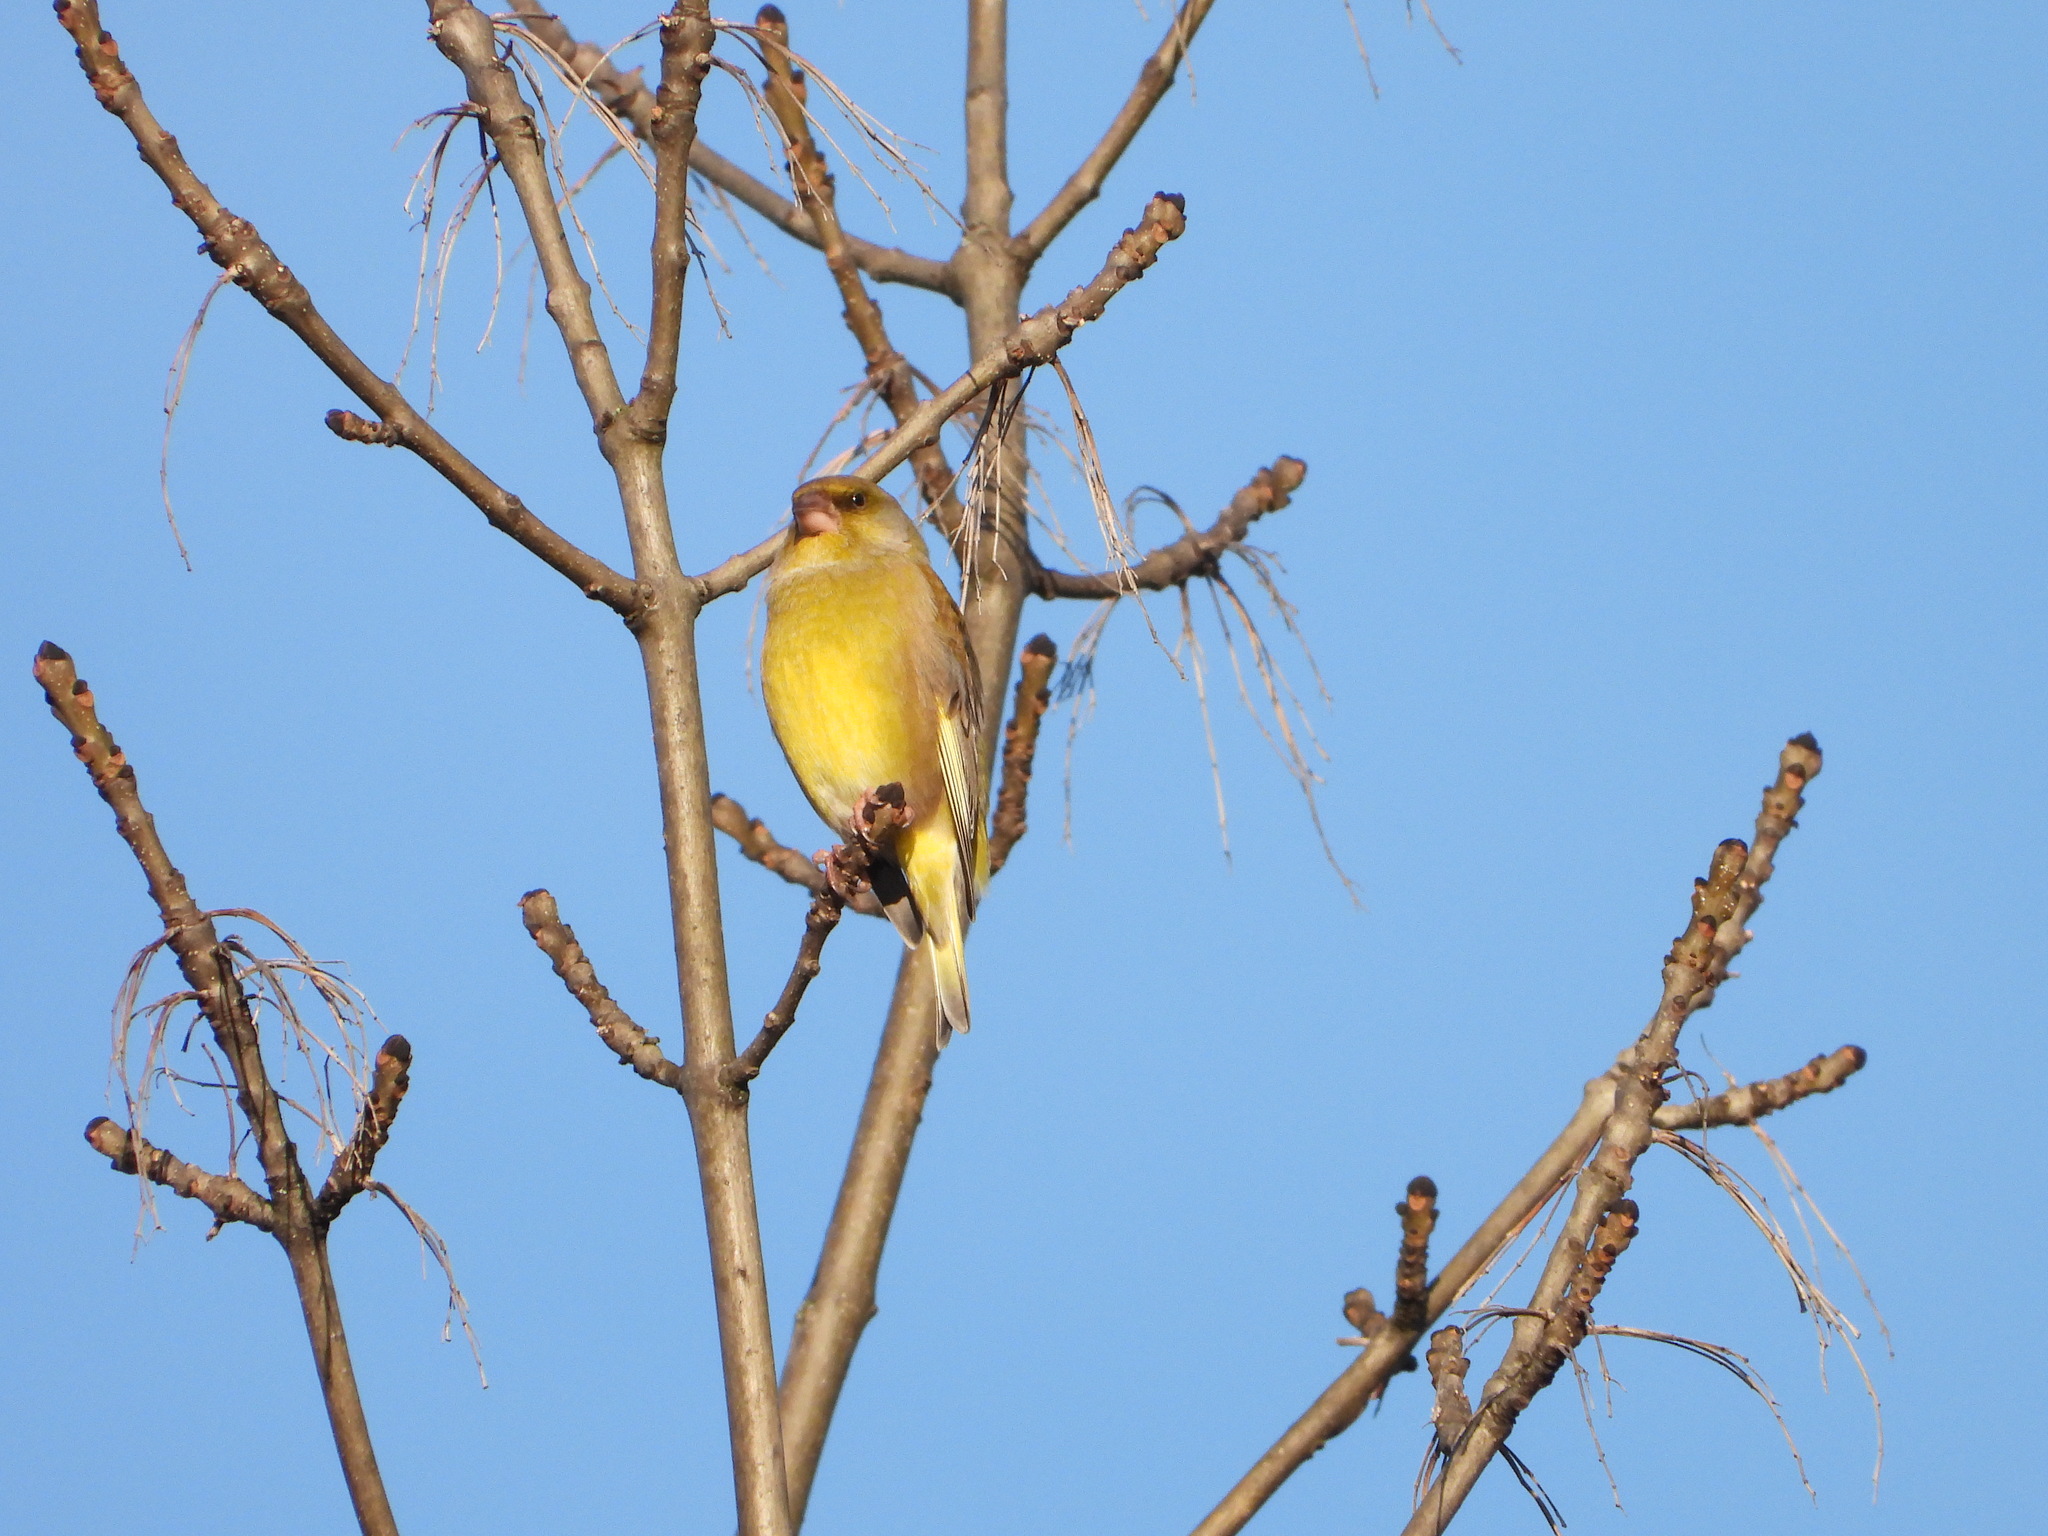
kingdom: Plantae
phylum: Tracheophyta
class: Liliopsida
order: Poales
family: Poaceae
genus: Chloris
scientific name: Chloris chloris
